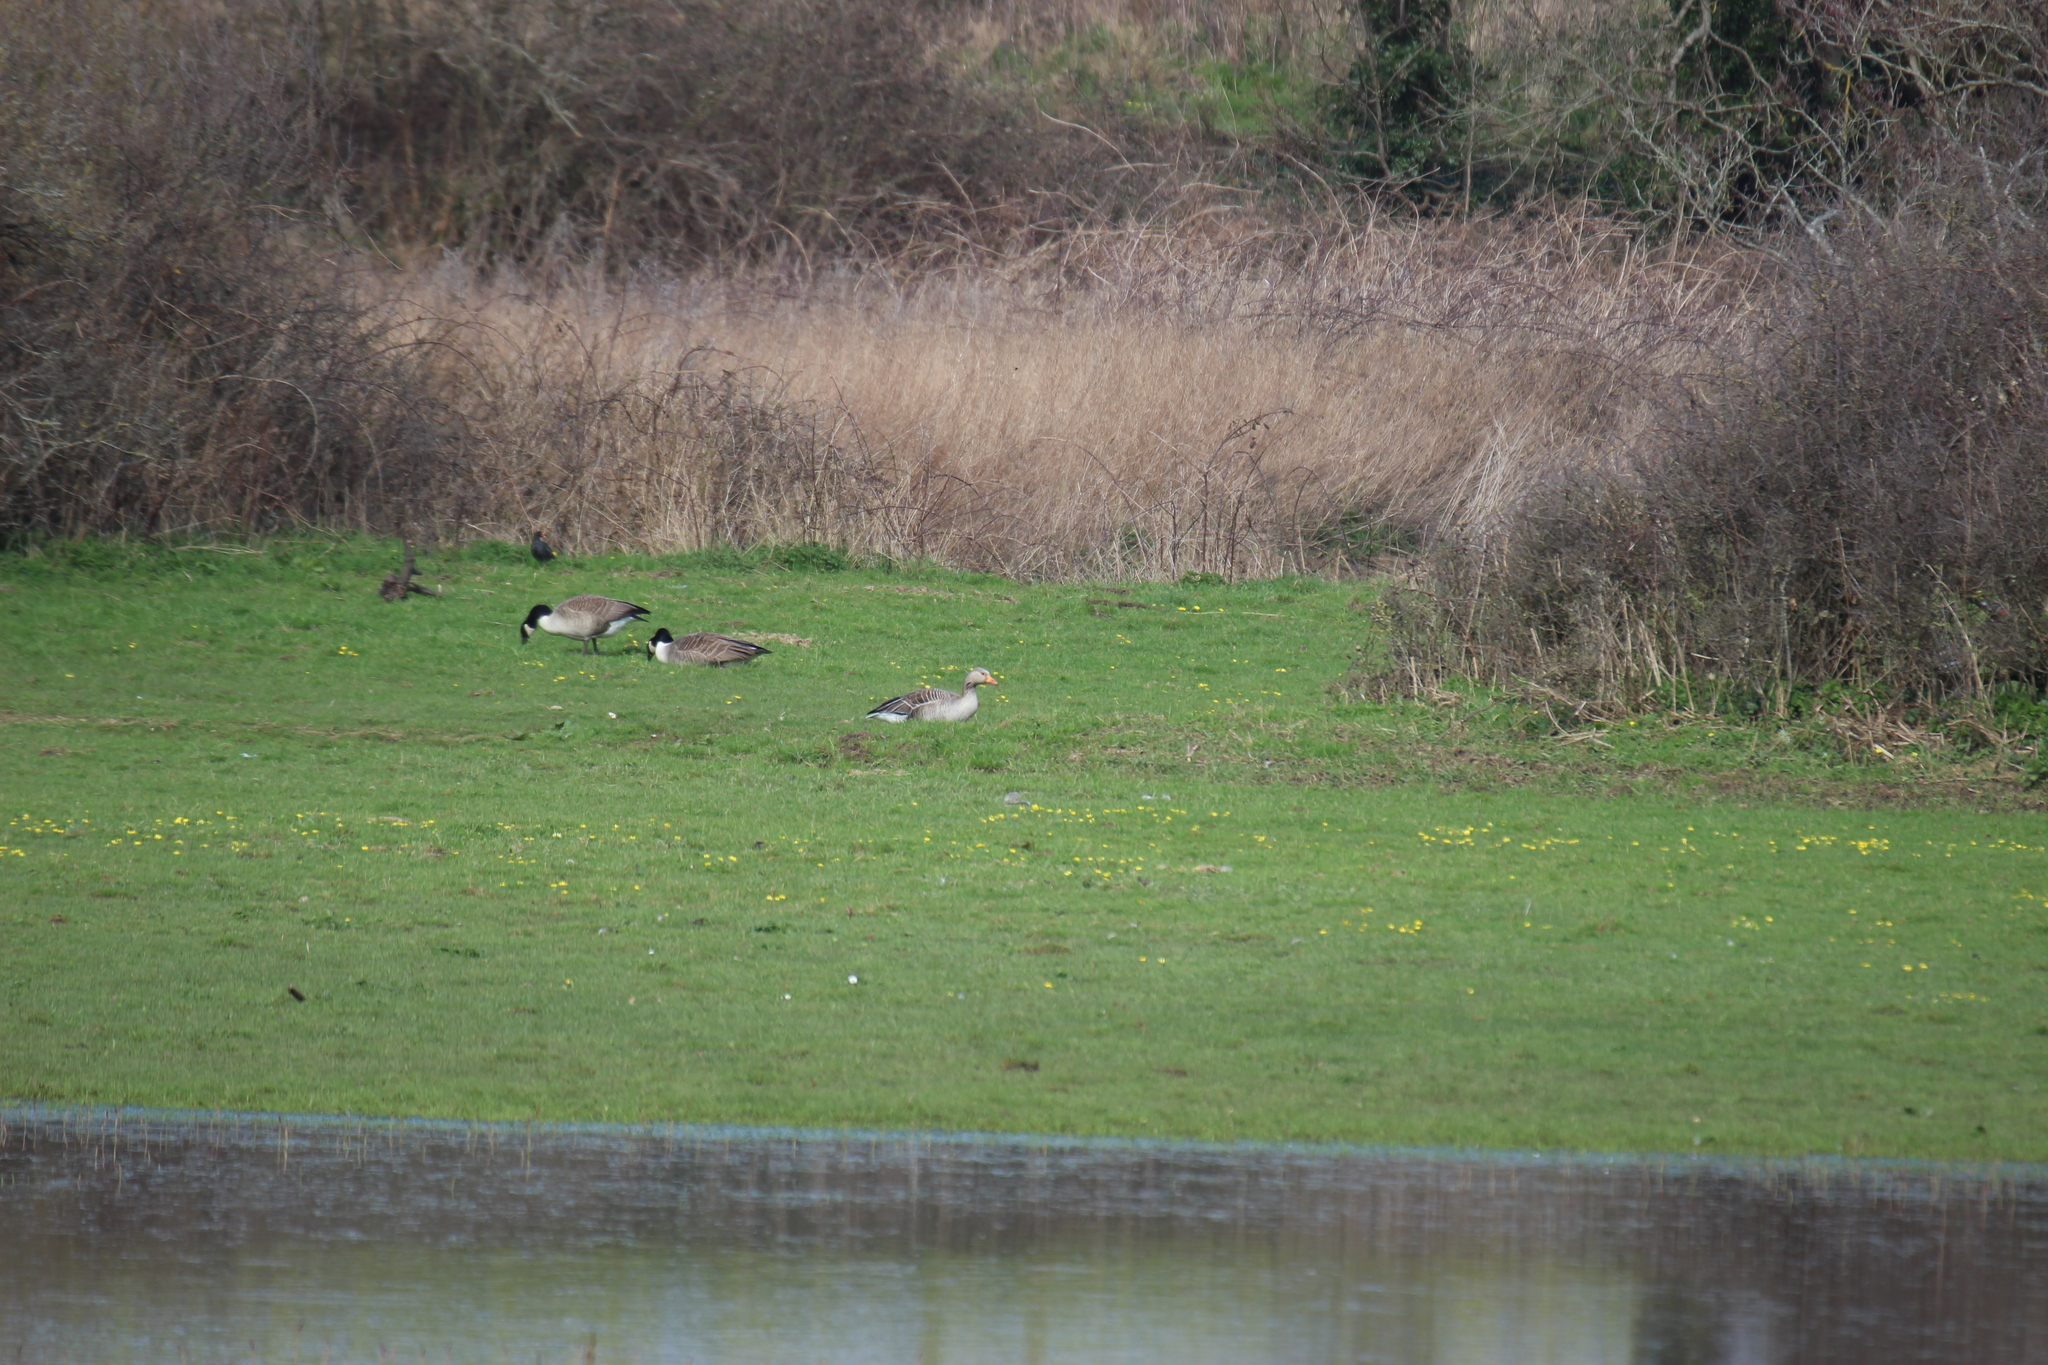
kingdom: Animalia
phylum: Chordata
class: Aves
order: Anseriformes
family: Anatidae
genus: Anser
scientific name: Anser anser
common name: Greylag goose
